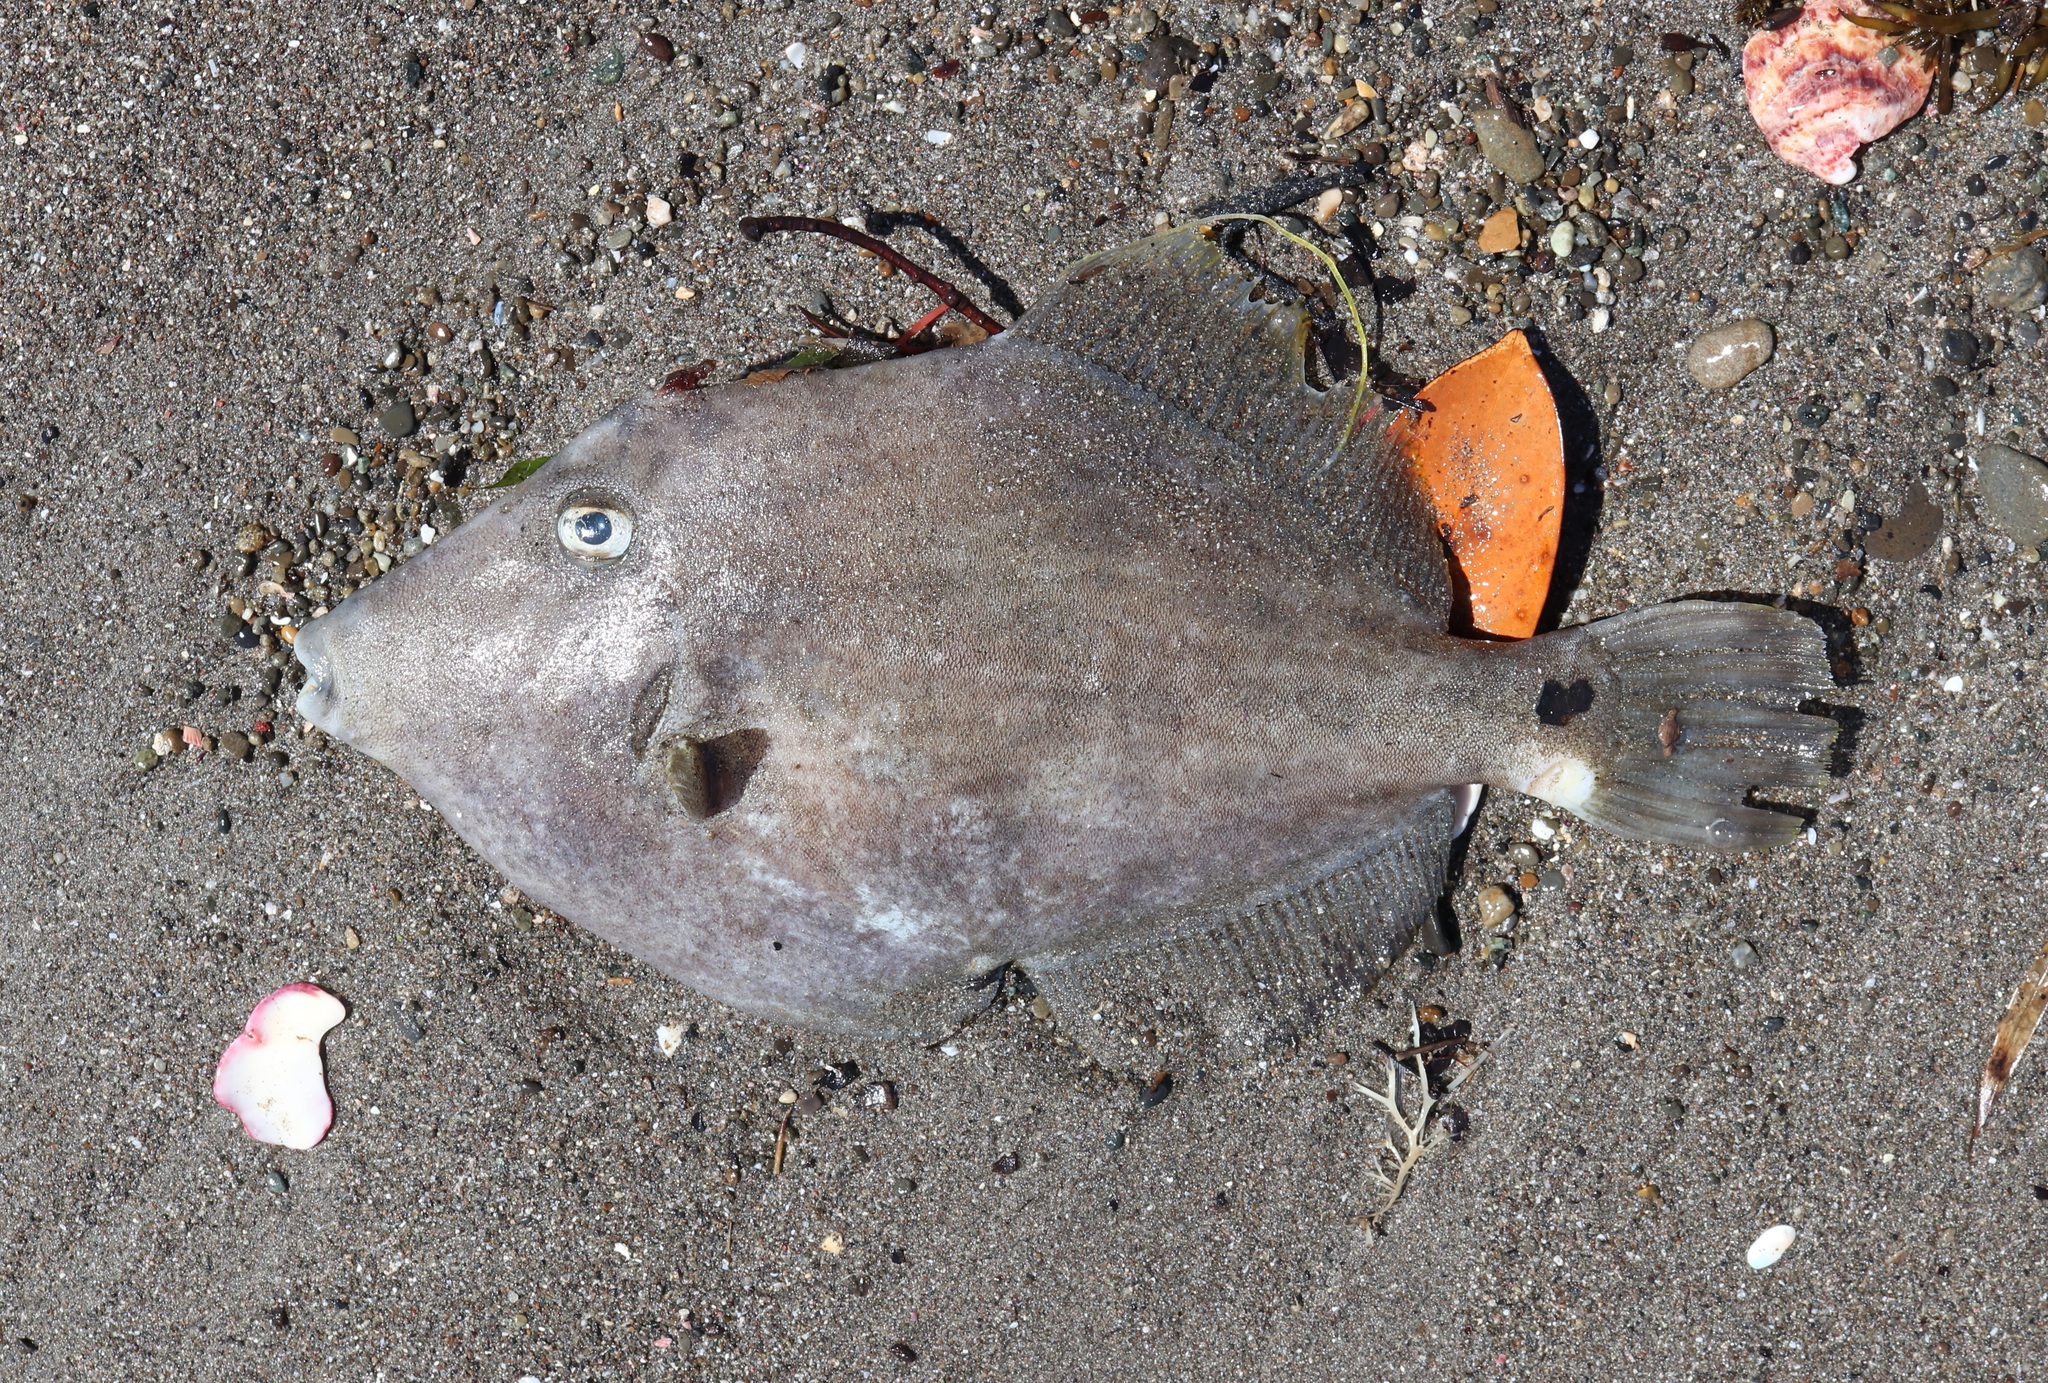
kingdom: Animalia
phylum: Chordata
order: Tetraodontiformes
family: Monacanthidae
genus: Stephanolepis
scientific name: Stephanolepis cirrhifer
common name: Fringed leatherjacket
